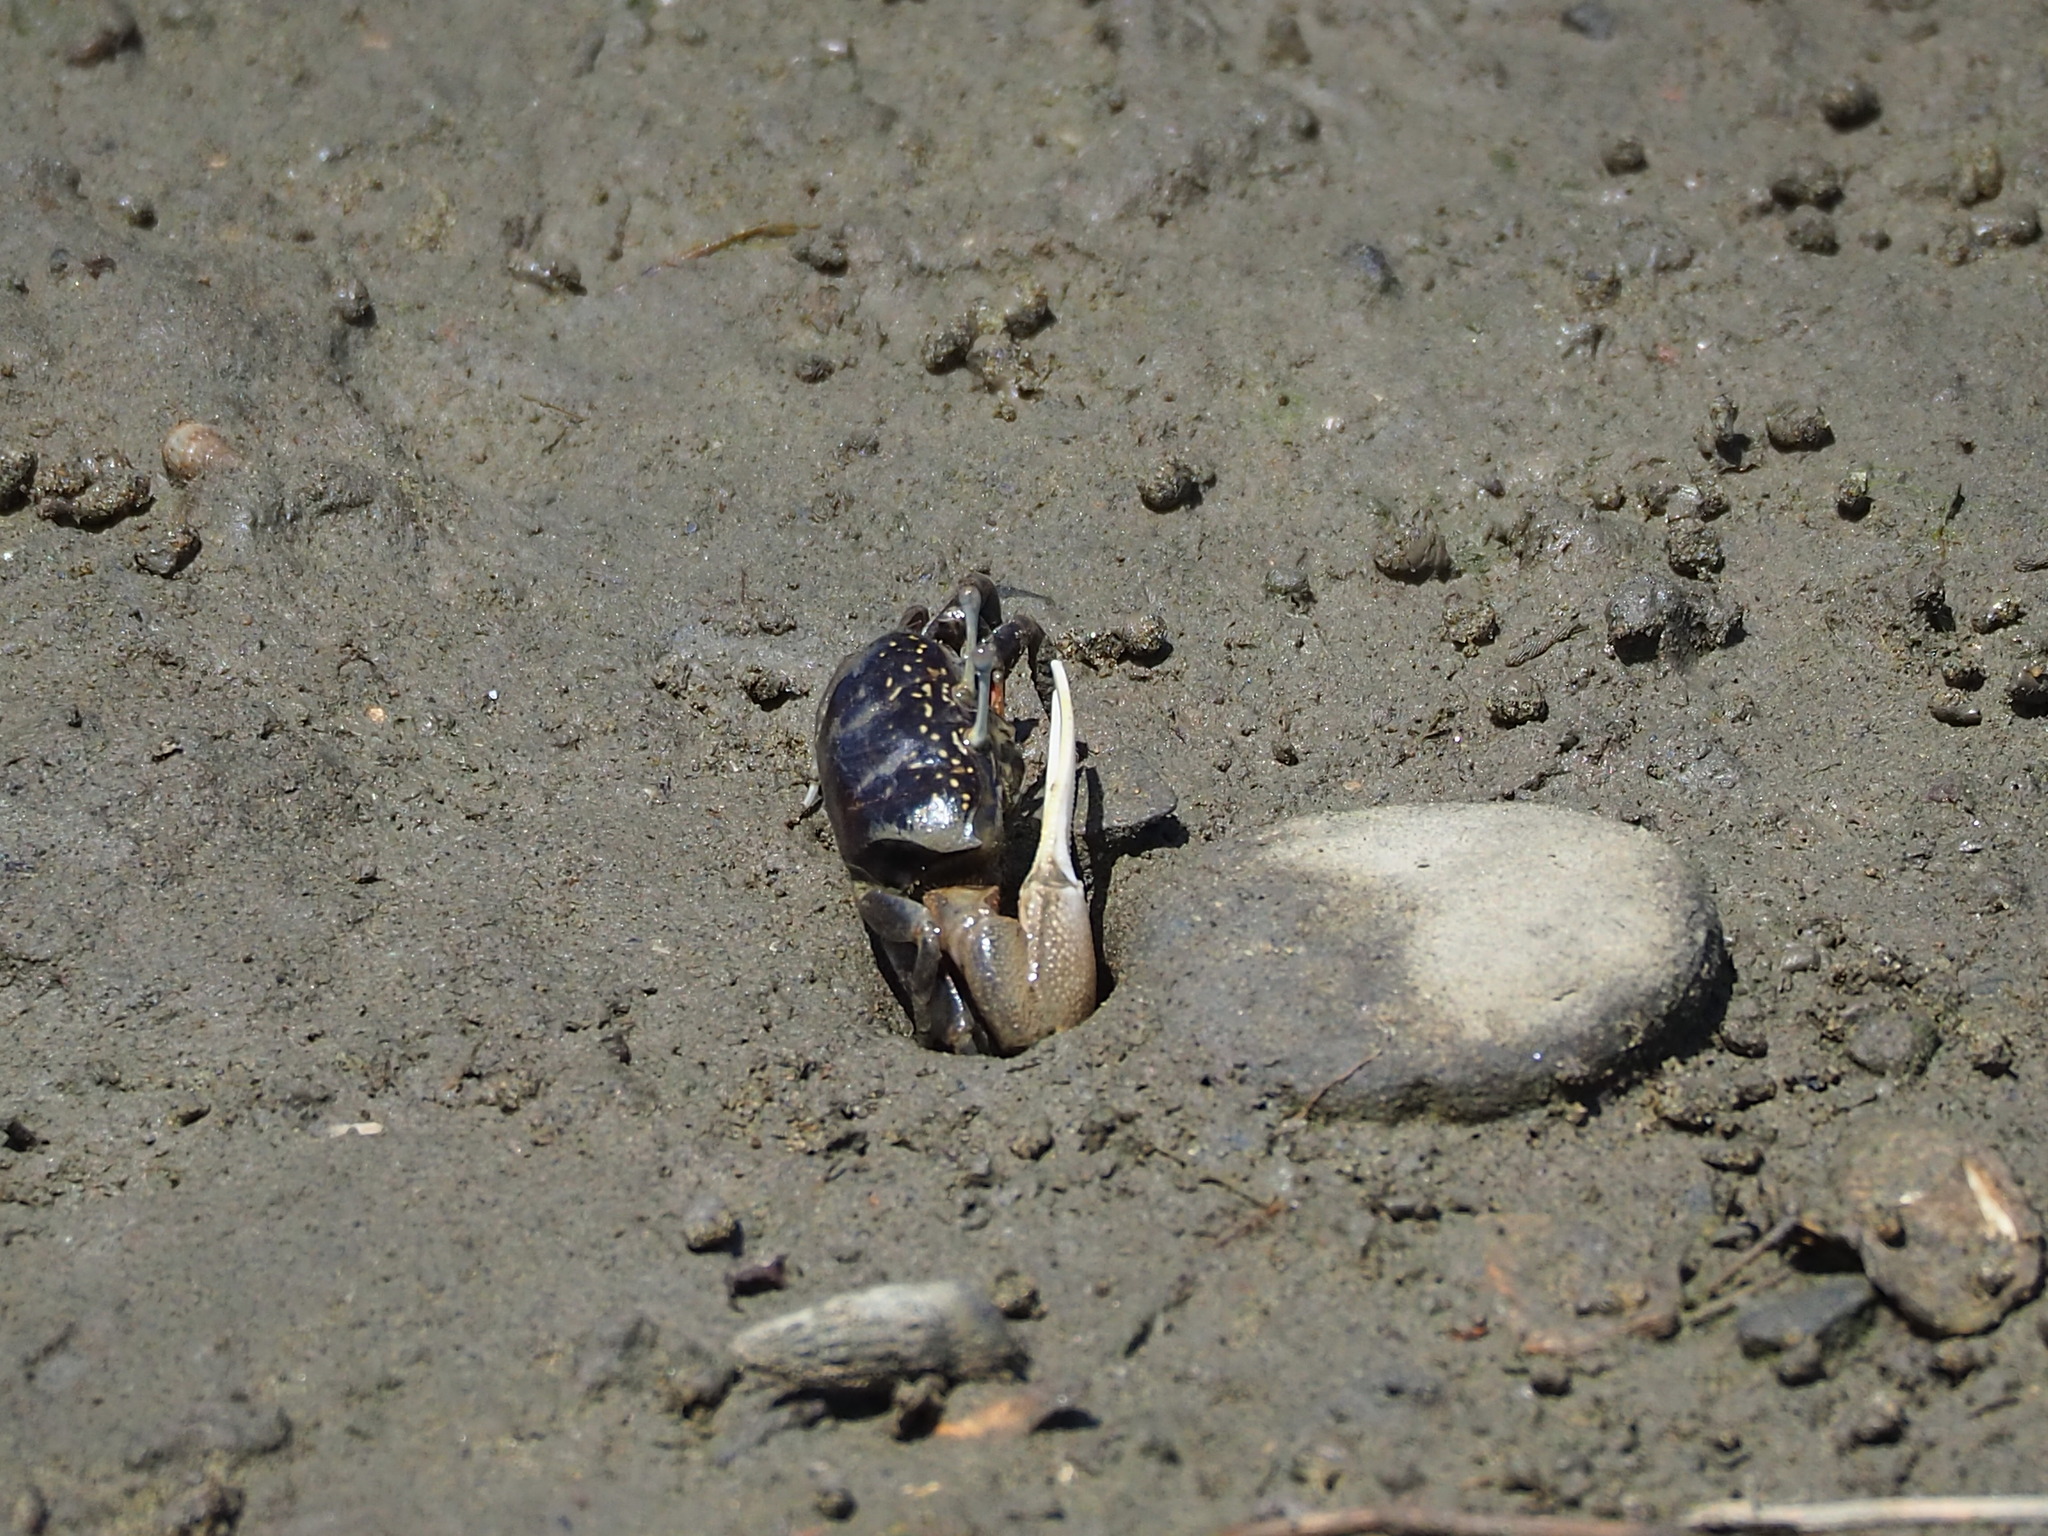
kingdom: Animalia
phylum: Arthropoda
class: Malacostraca
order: Decapoda
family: Ocypodidae
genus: Xeruca
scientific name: Xeruca formosensis
